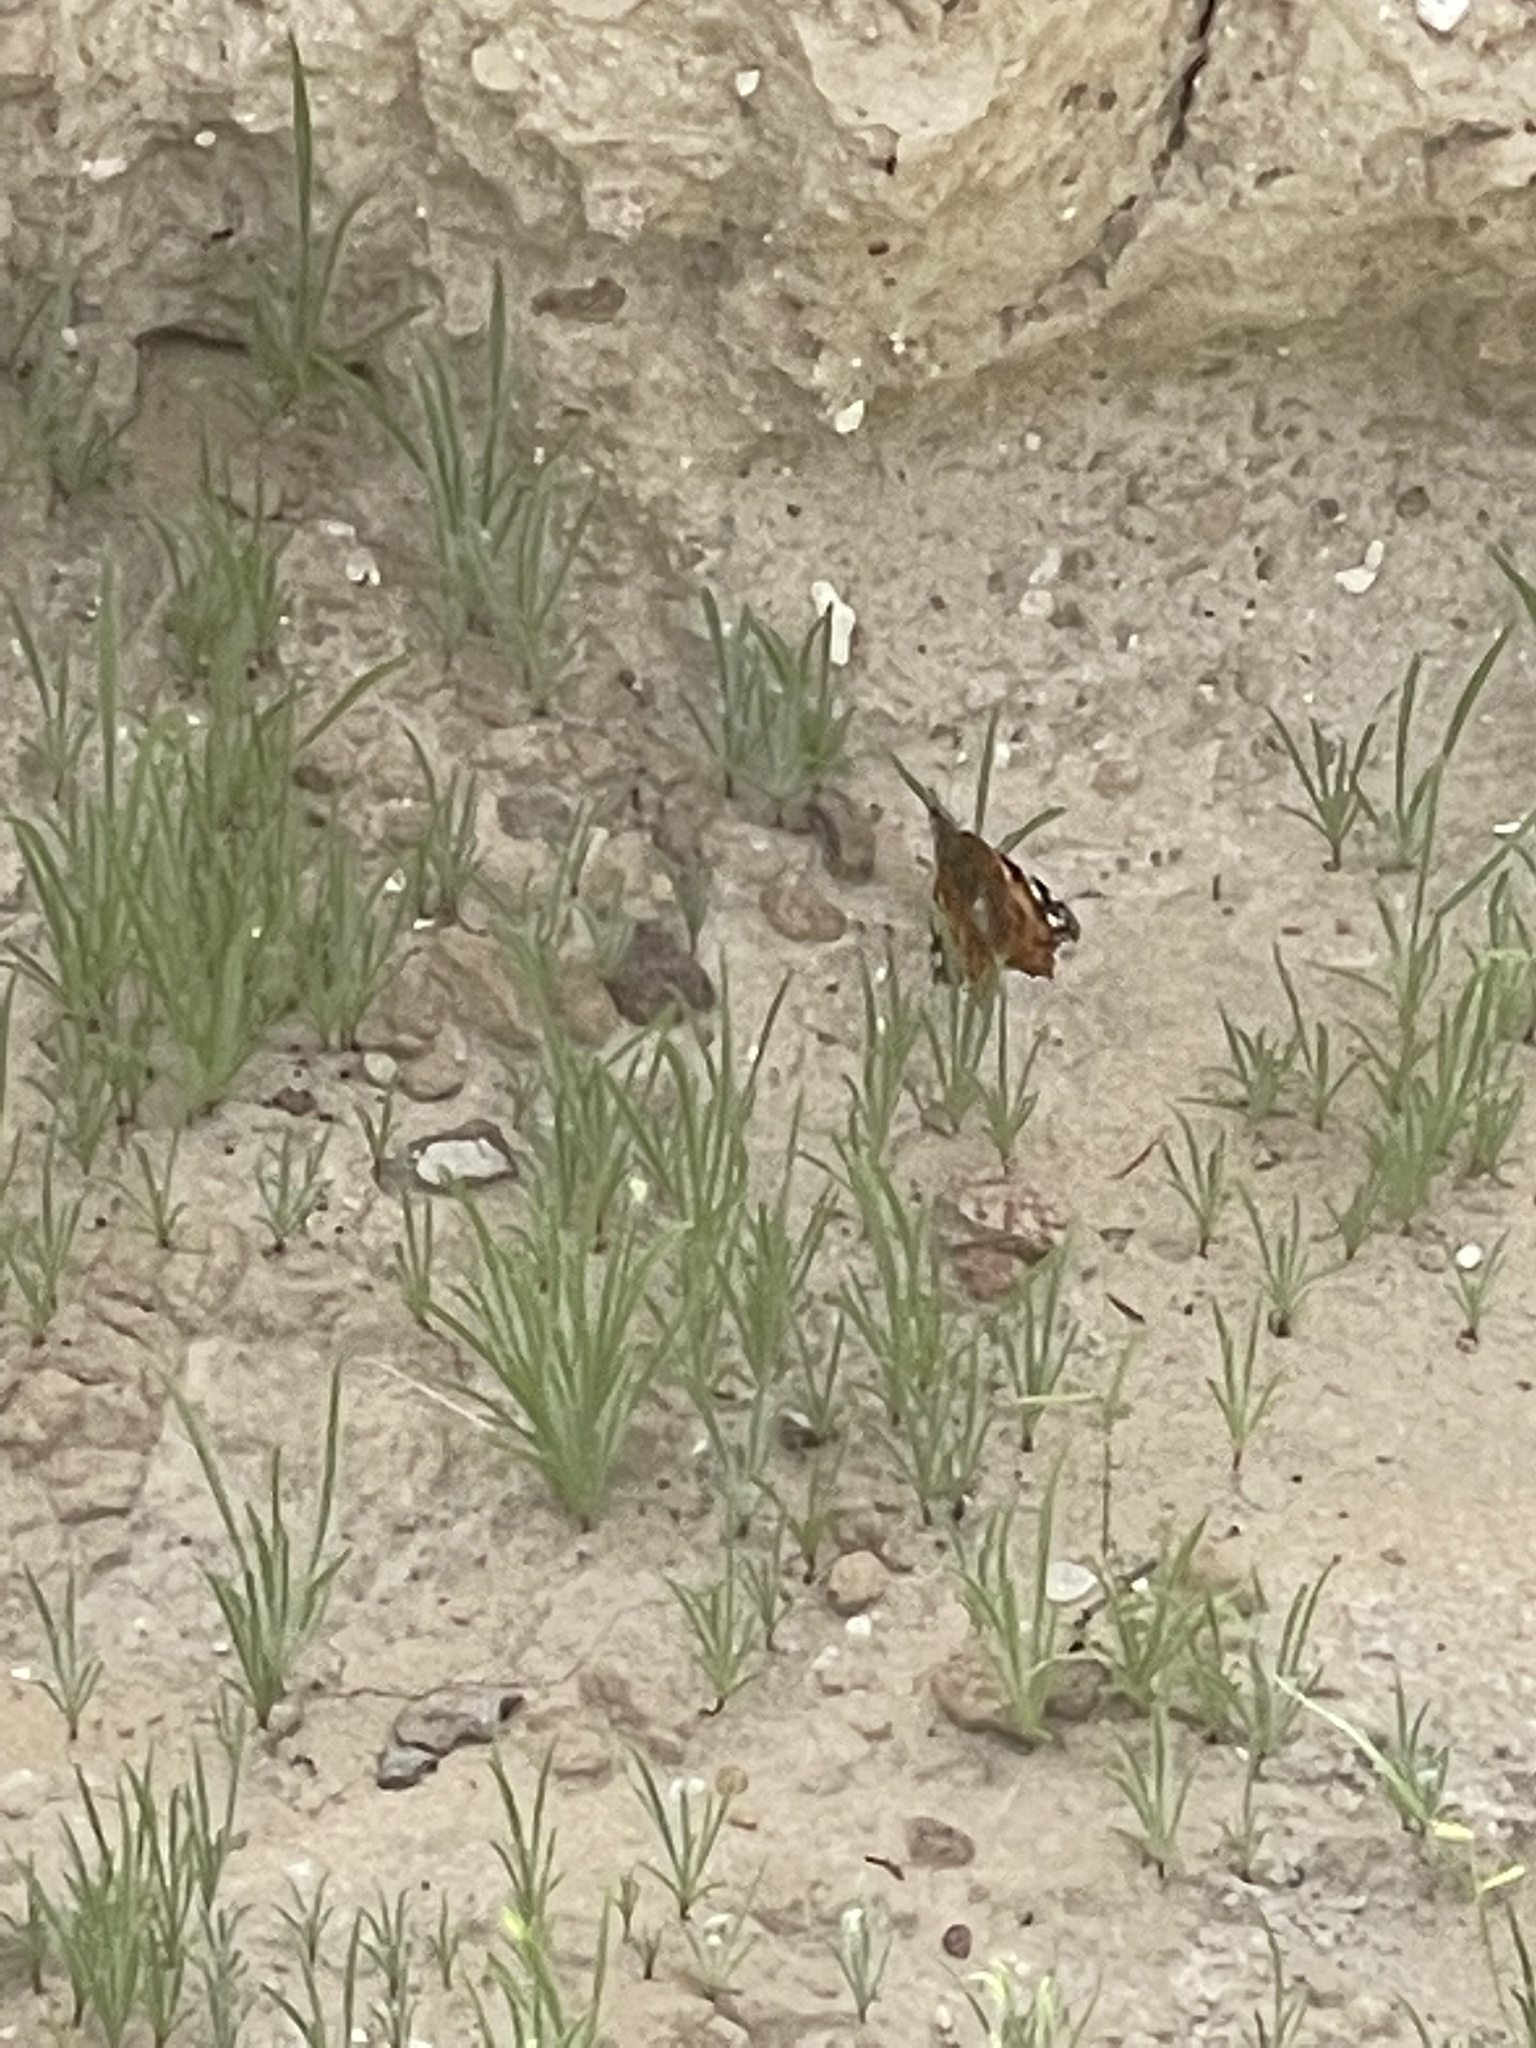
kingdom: Animalia
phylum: Arthropoda
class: Insecta
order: Lepidoptera
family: Nymphalidae
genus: Vanessa
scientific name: Vanessa cardui
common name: Painted lady
